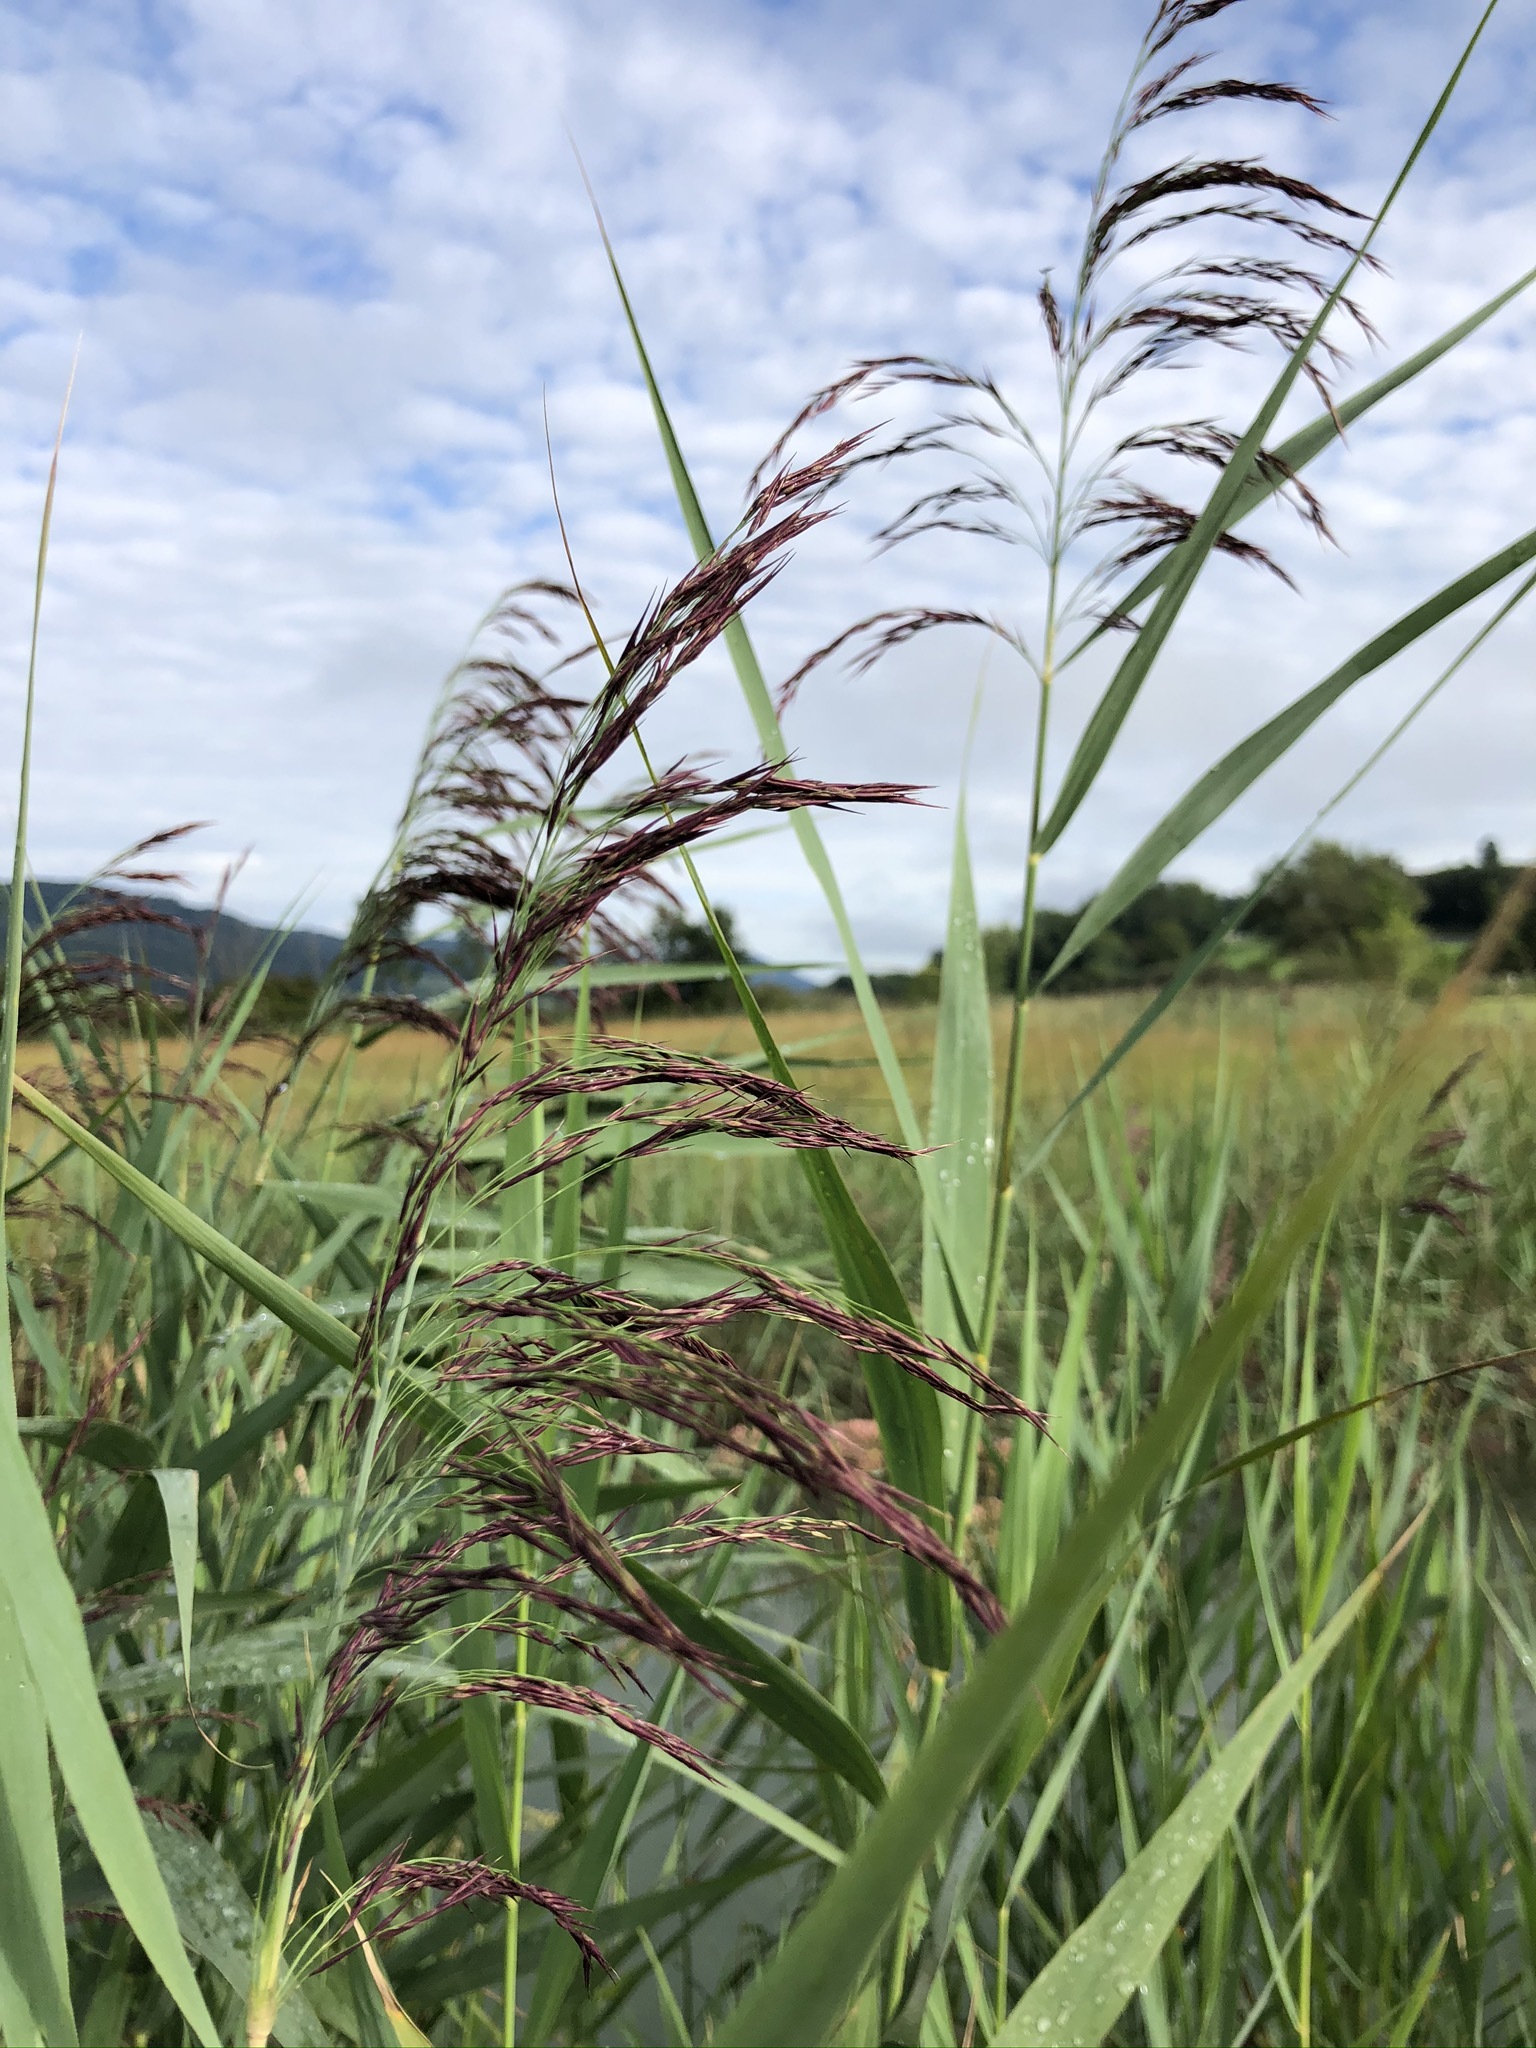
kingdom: Plantae
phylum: Tracheophyta
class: Liliopsida
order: Poales
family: Poaceae
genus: Phragmites
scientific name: Phragmites australis
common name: Common reed
